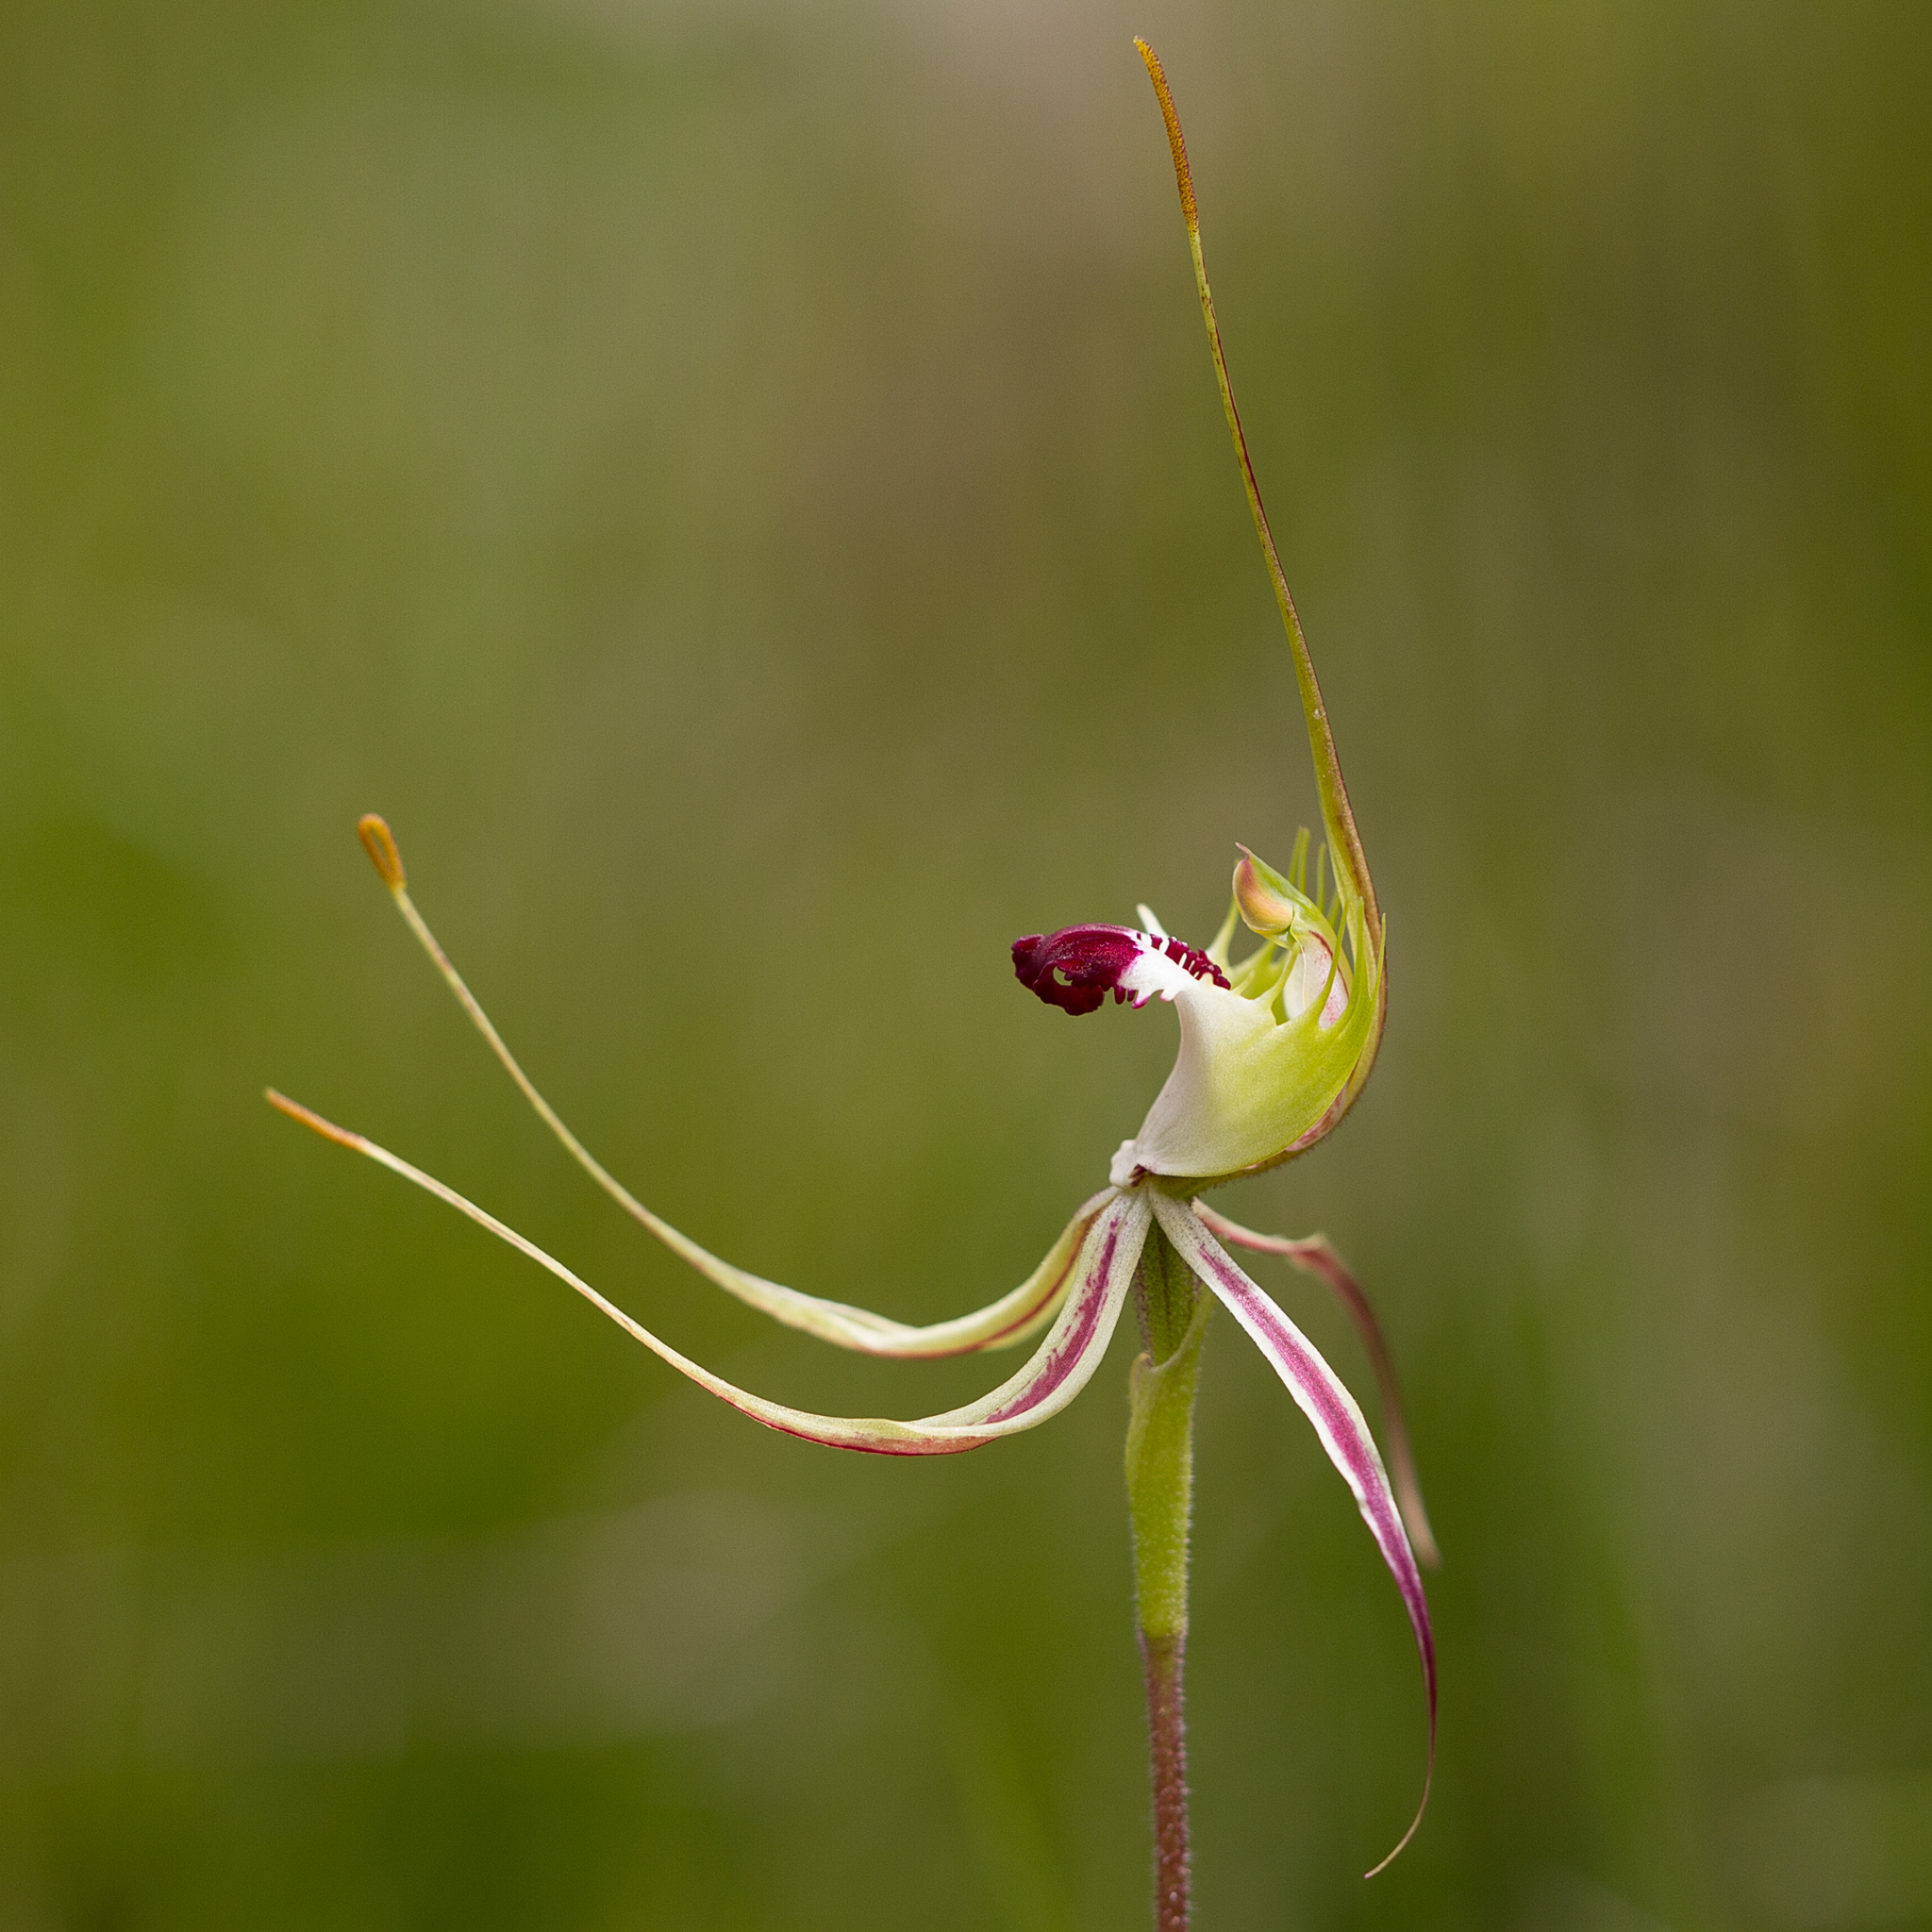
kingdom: Plantae
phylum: Tracheophyta
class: Liliopsida
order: Asparagales
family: Orchidaceae
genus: Caladenia
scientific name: Caladenia tentaculata
